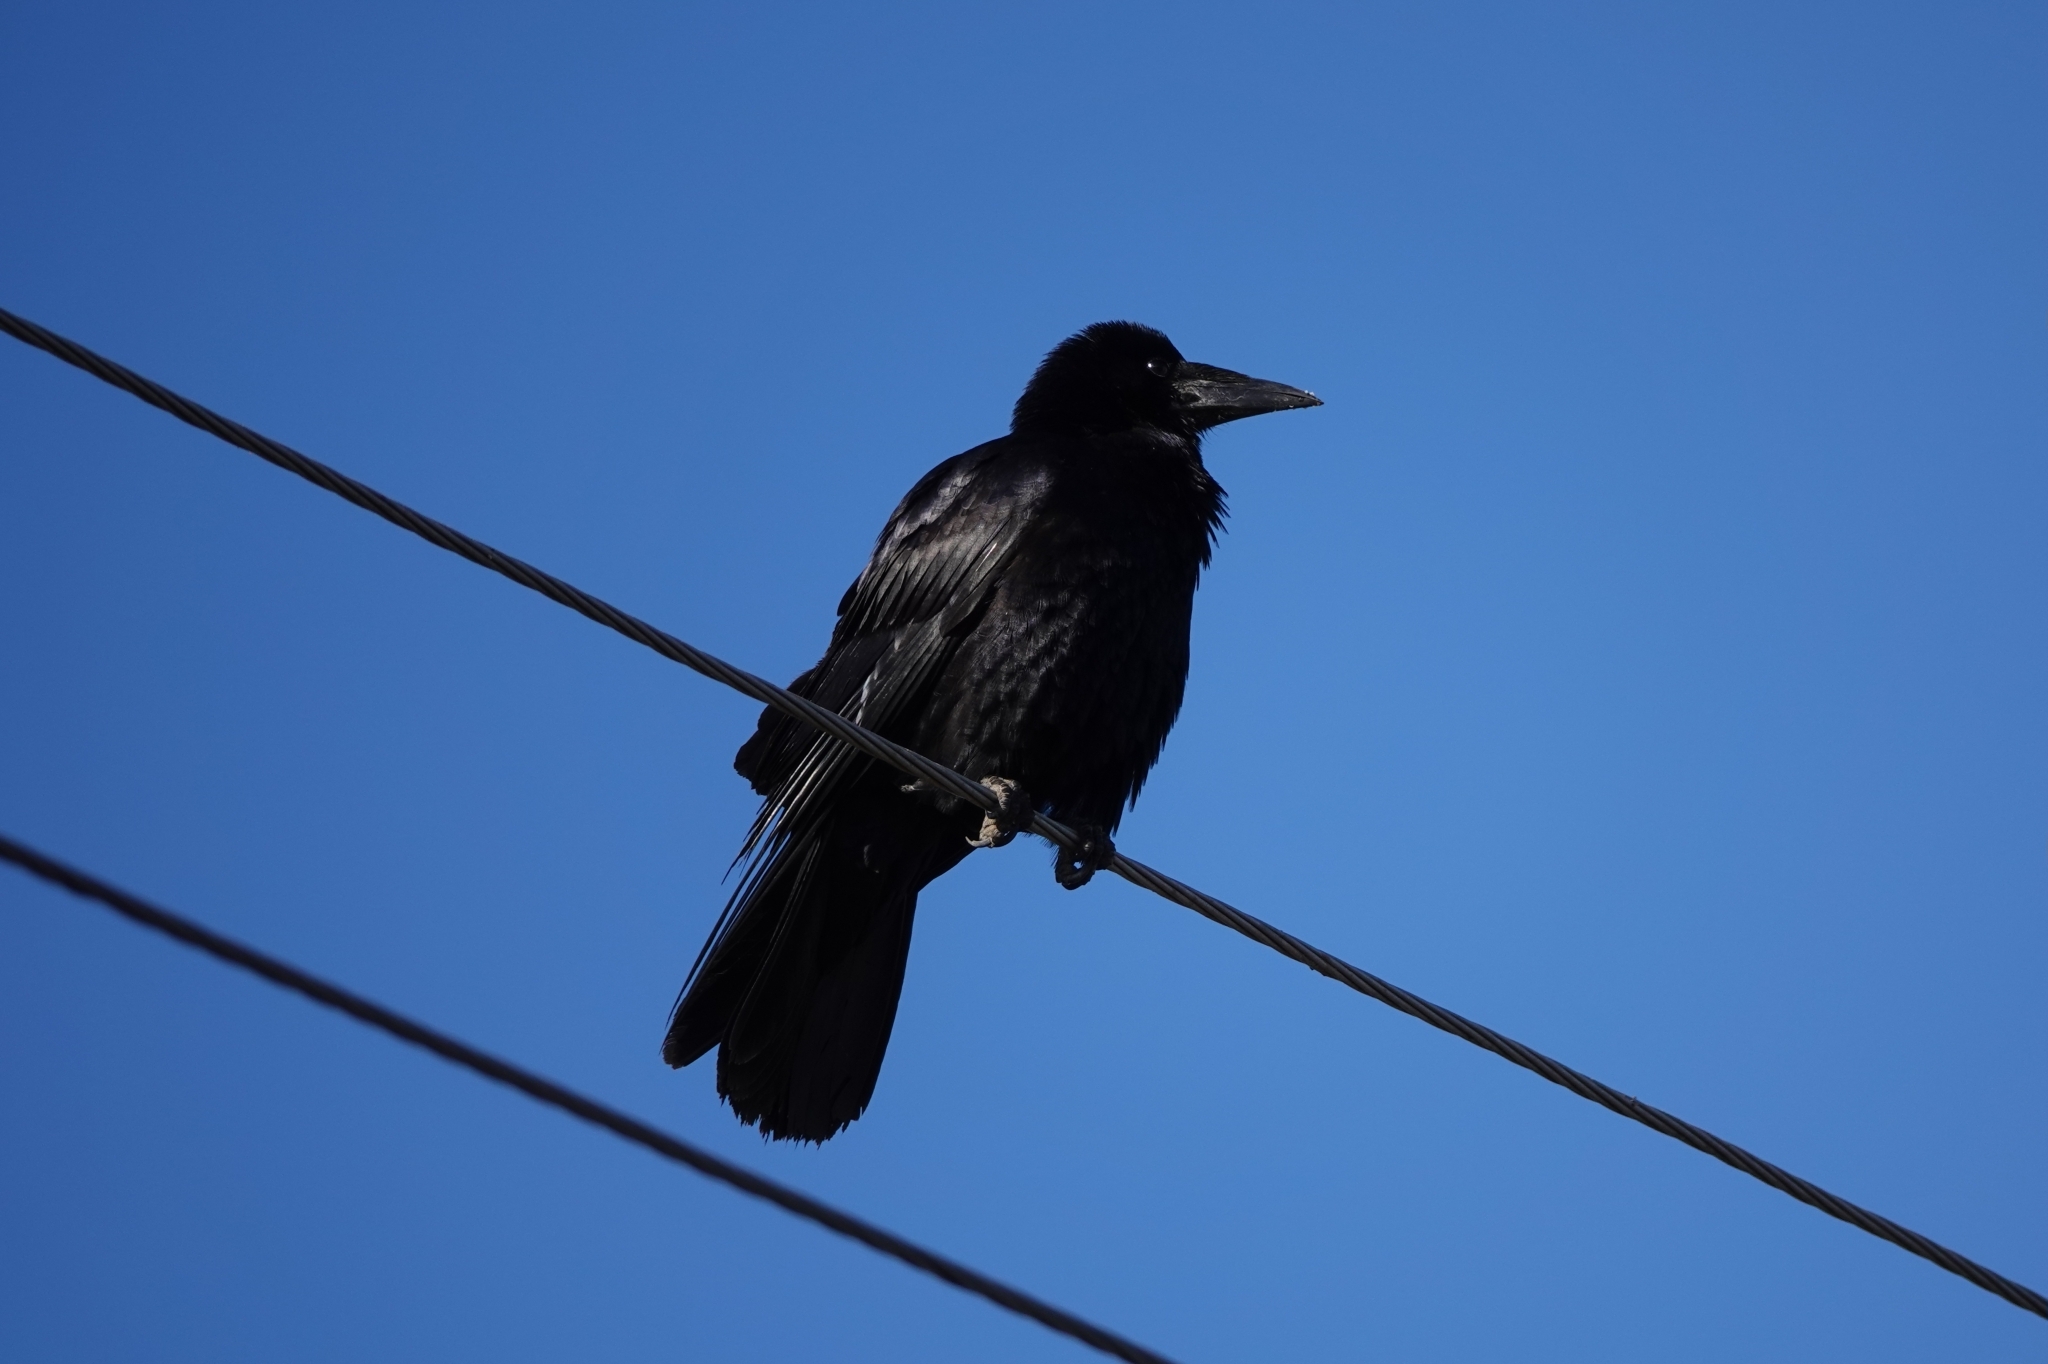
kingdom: Animalia
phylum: Chordata
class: Aves
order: Passeriformes
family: Corvidae
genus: Corvus
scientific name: Corvus frugilegus
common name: Rook
